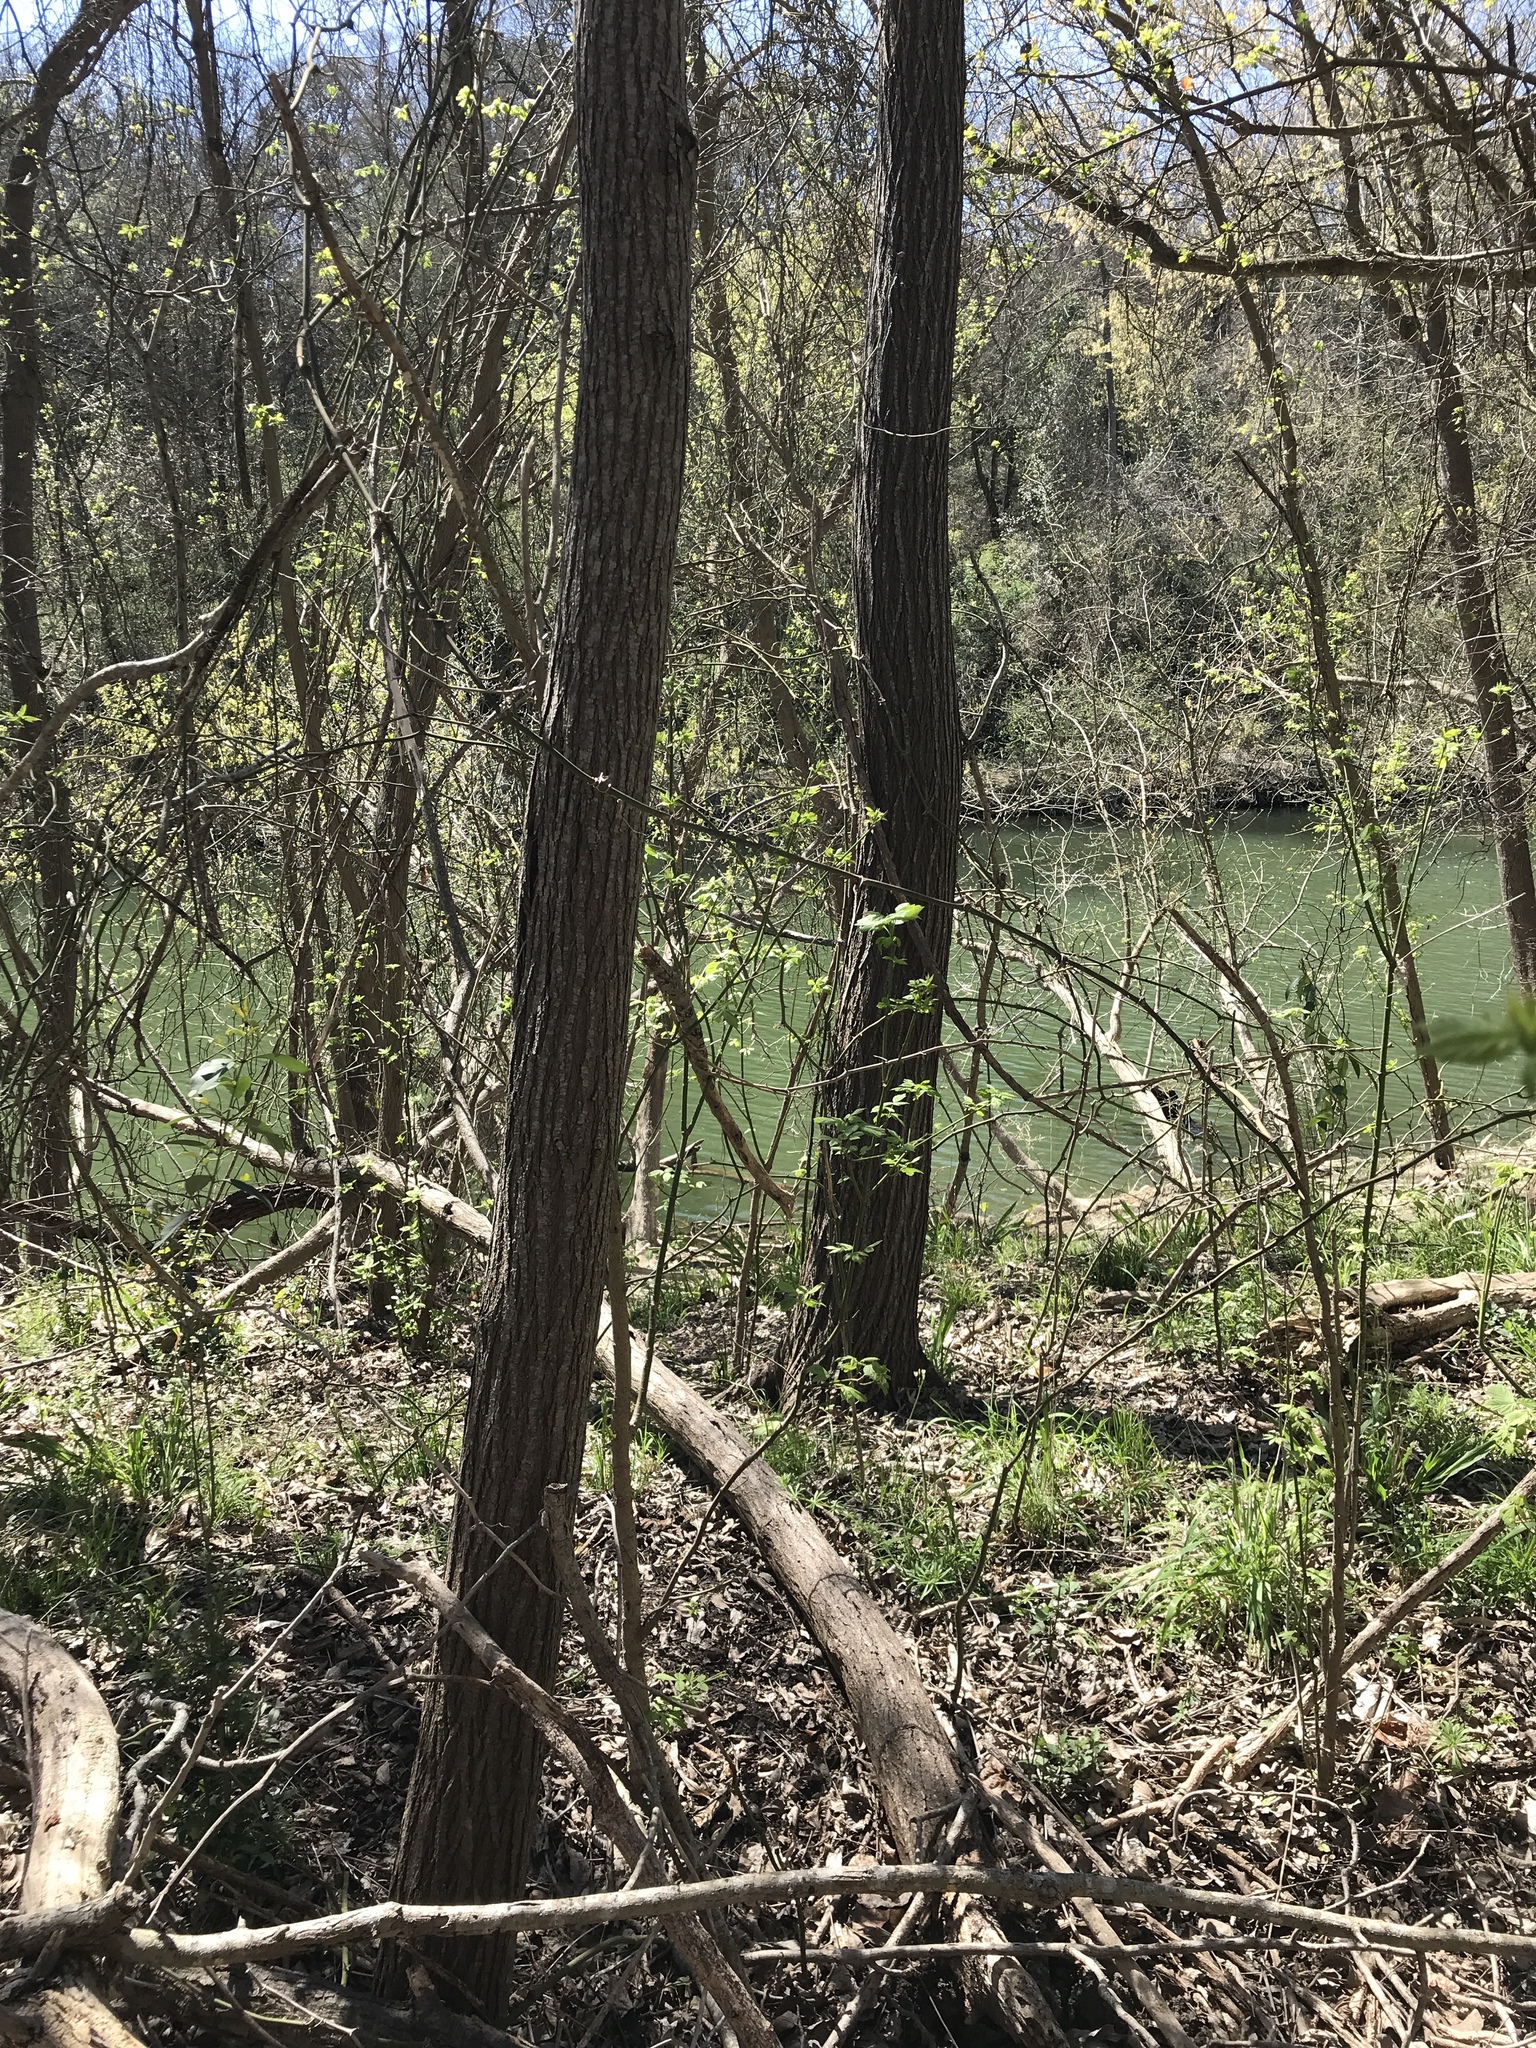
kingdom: Plantae
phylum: Tracheophyta
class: Magnoliopsida
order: Sapindales
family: Meliaceae
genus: Melia
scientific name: Melia azedarach
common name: Chinaberrytree
